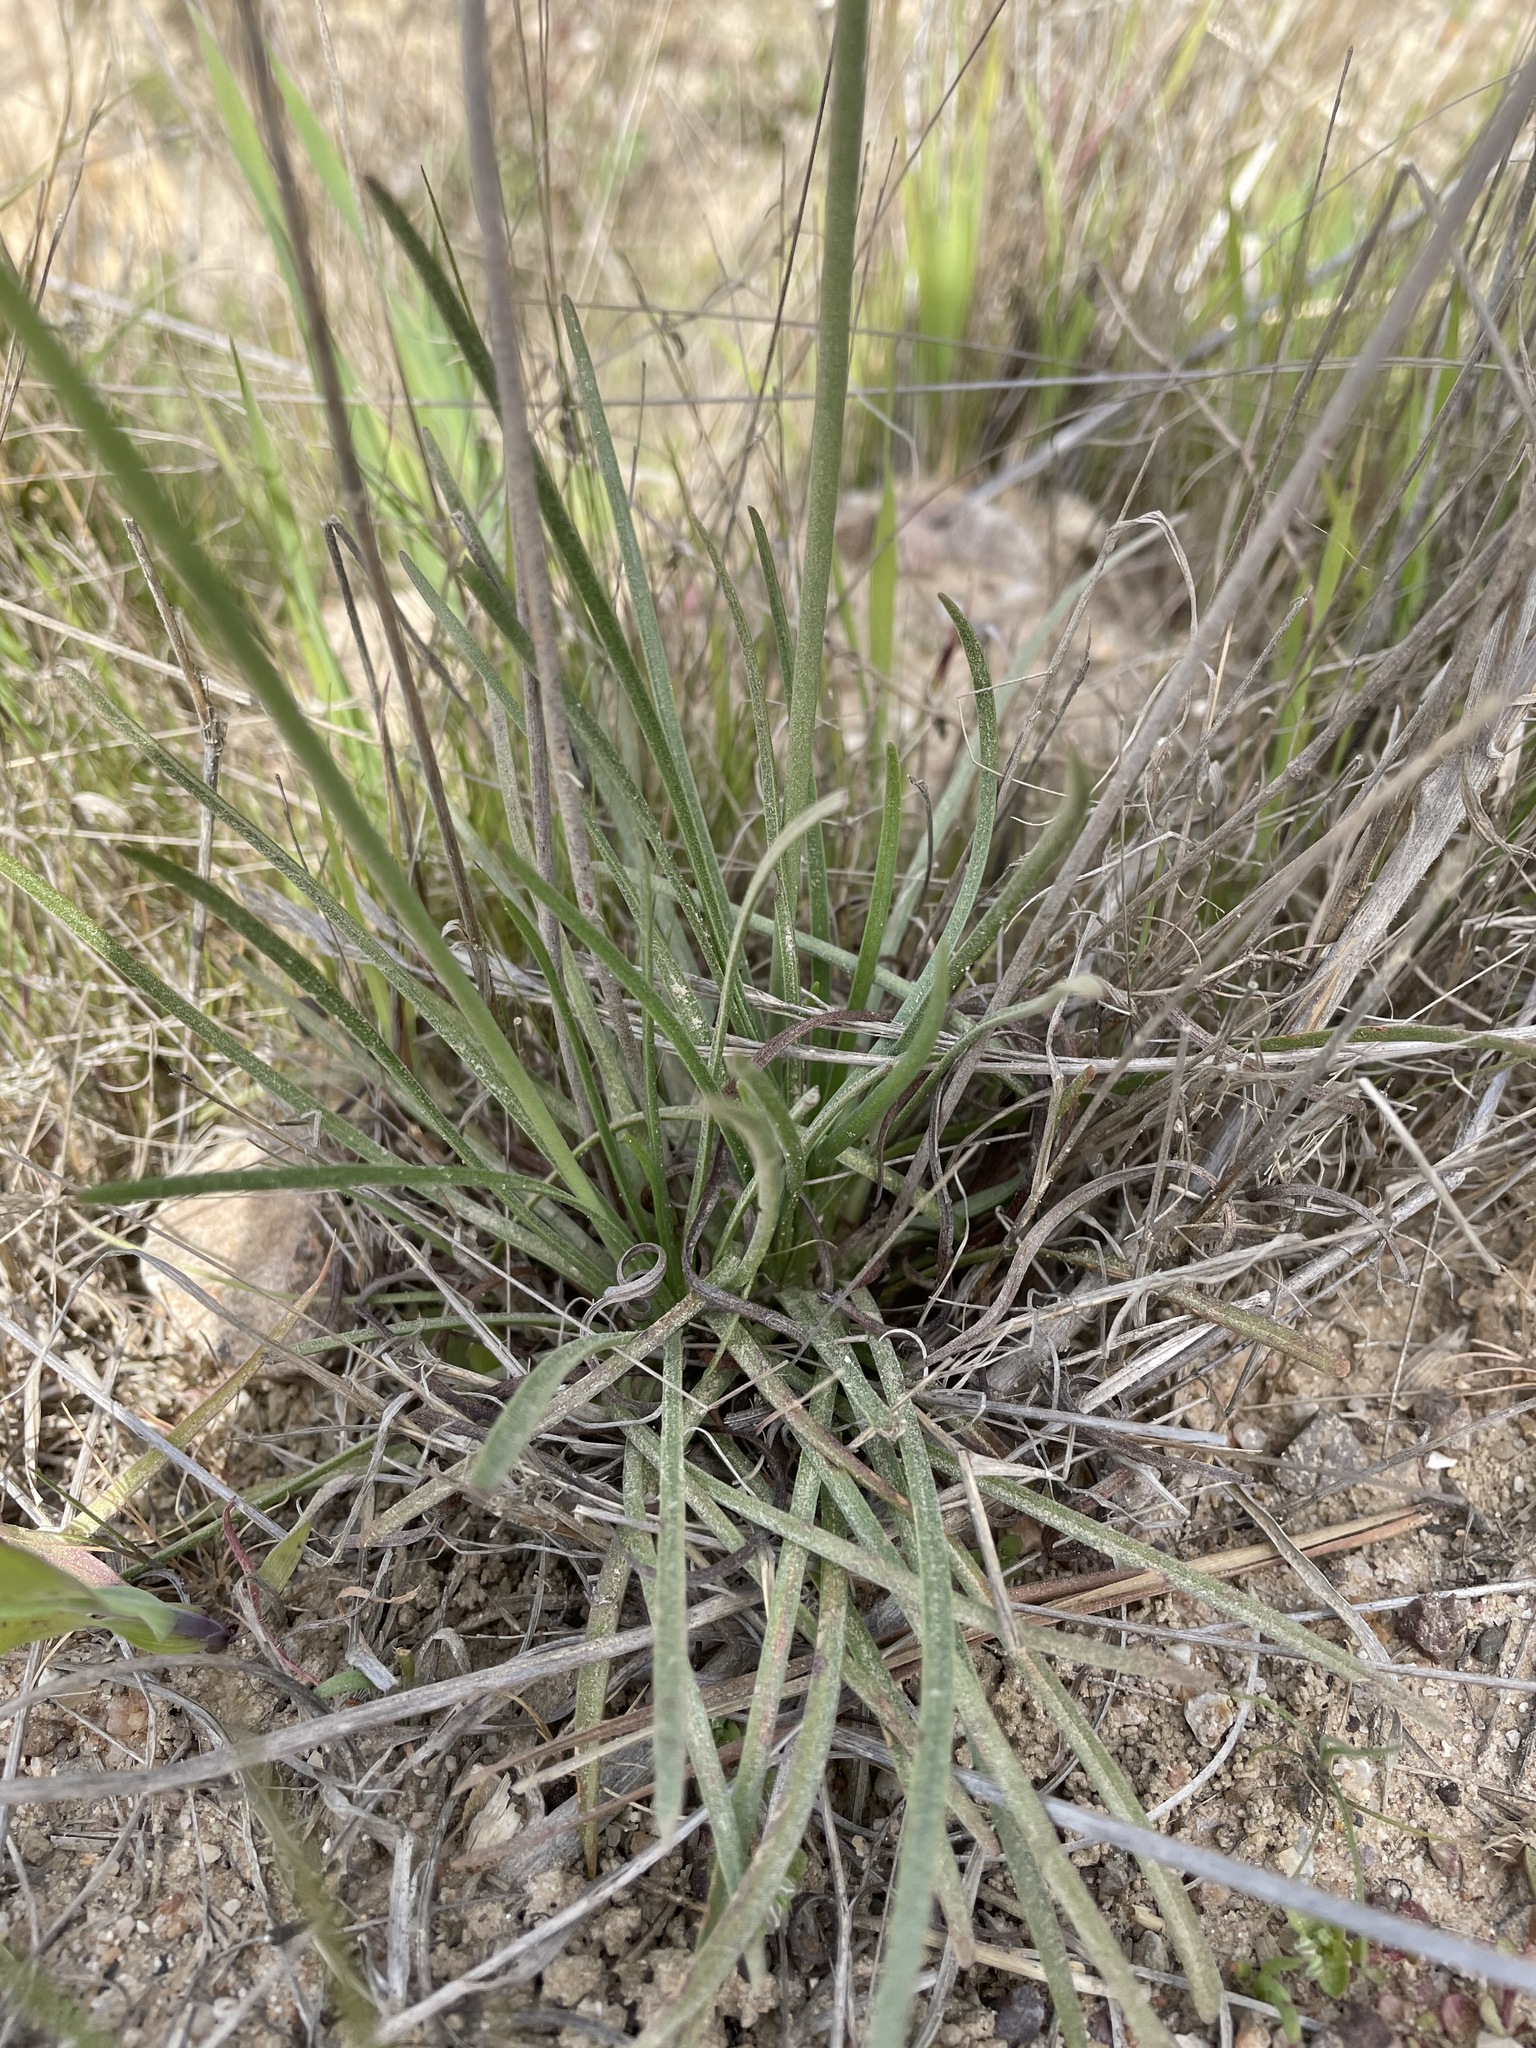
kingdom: Plantae
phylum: Tracheophyta
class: Magnoliopsida
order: Caryophyllales
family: Plumbaginaceae
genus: Armeria
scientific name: Armeria maritima
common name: Thrift
